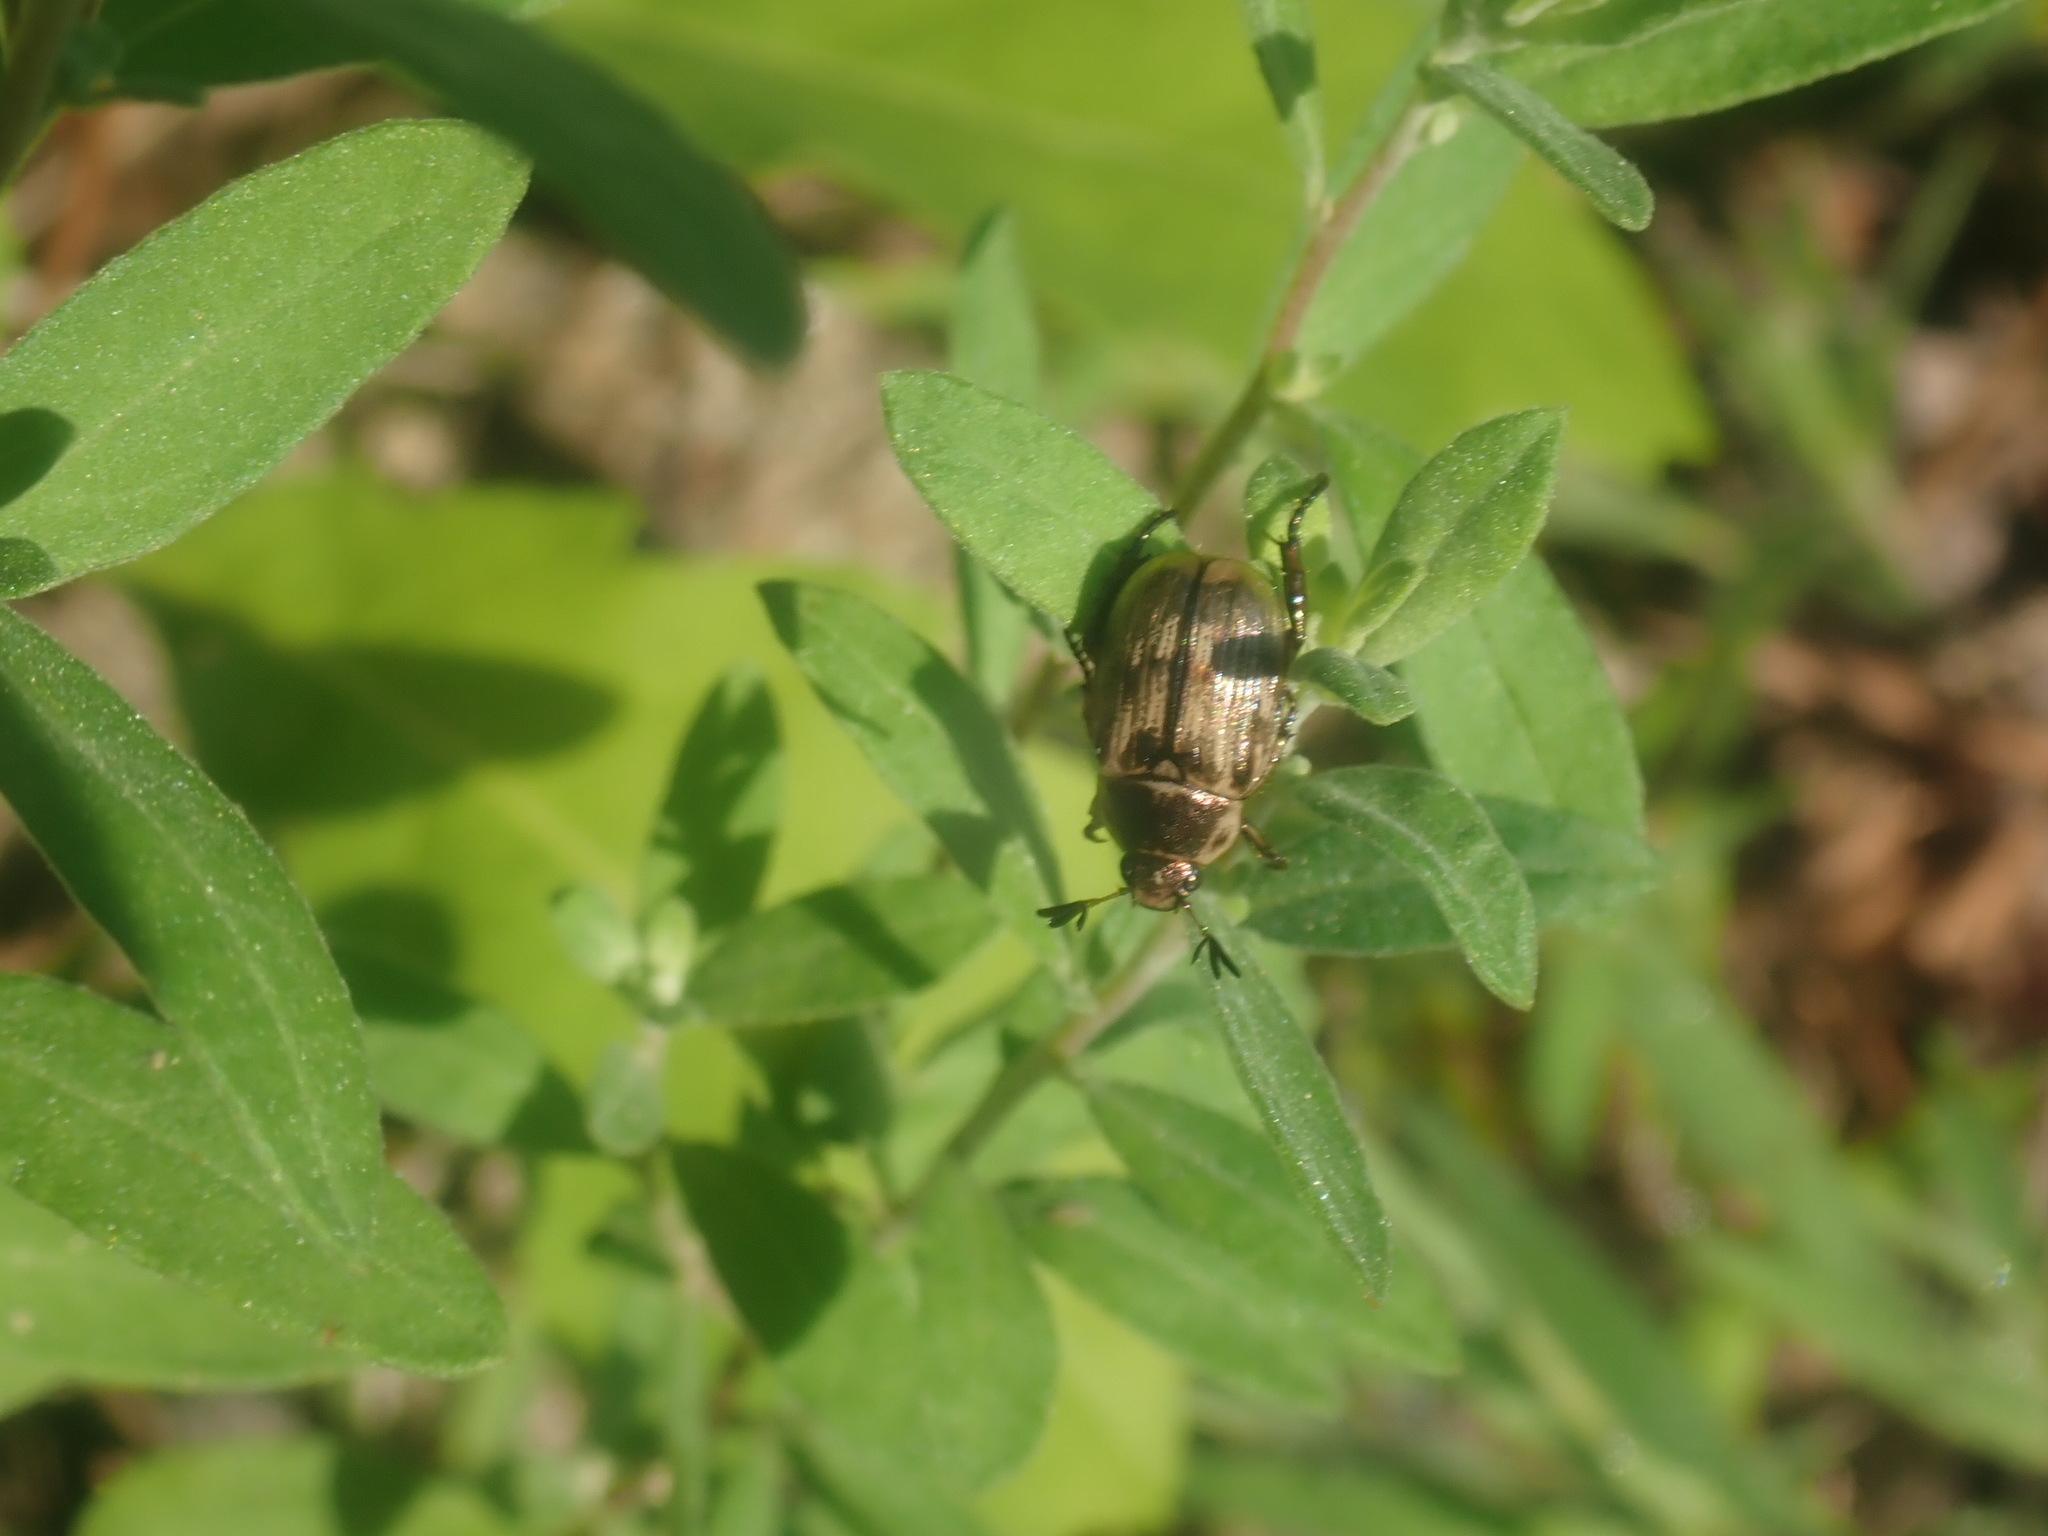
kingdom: Animalia
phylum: Arthropoda
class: Insecta
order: Coleoptera
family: Scarabaeidae
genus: Exomala
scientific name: Exomala orientalis
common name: Oriental beetle
